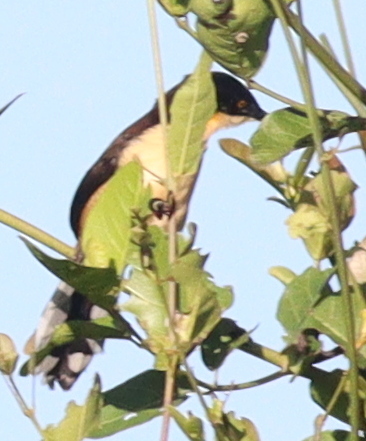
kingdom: Animalia
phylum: Chordata
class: Aves
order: Passeriformes
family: Donacobiidae
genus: Donacobius
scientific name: Donacobius atricapilla
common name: Black-capped donacobius
